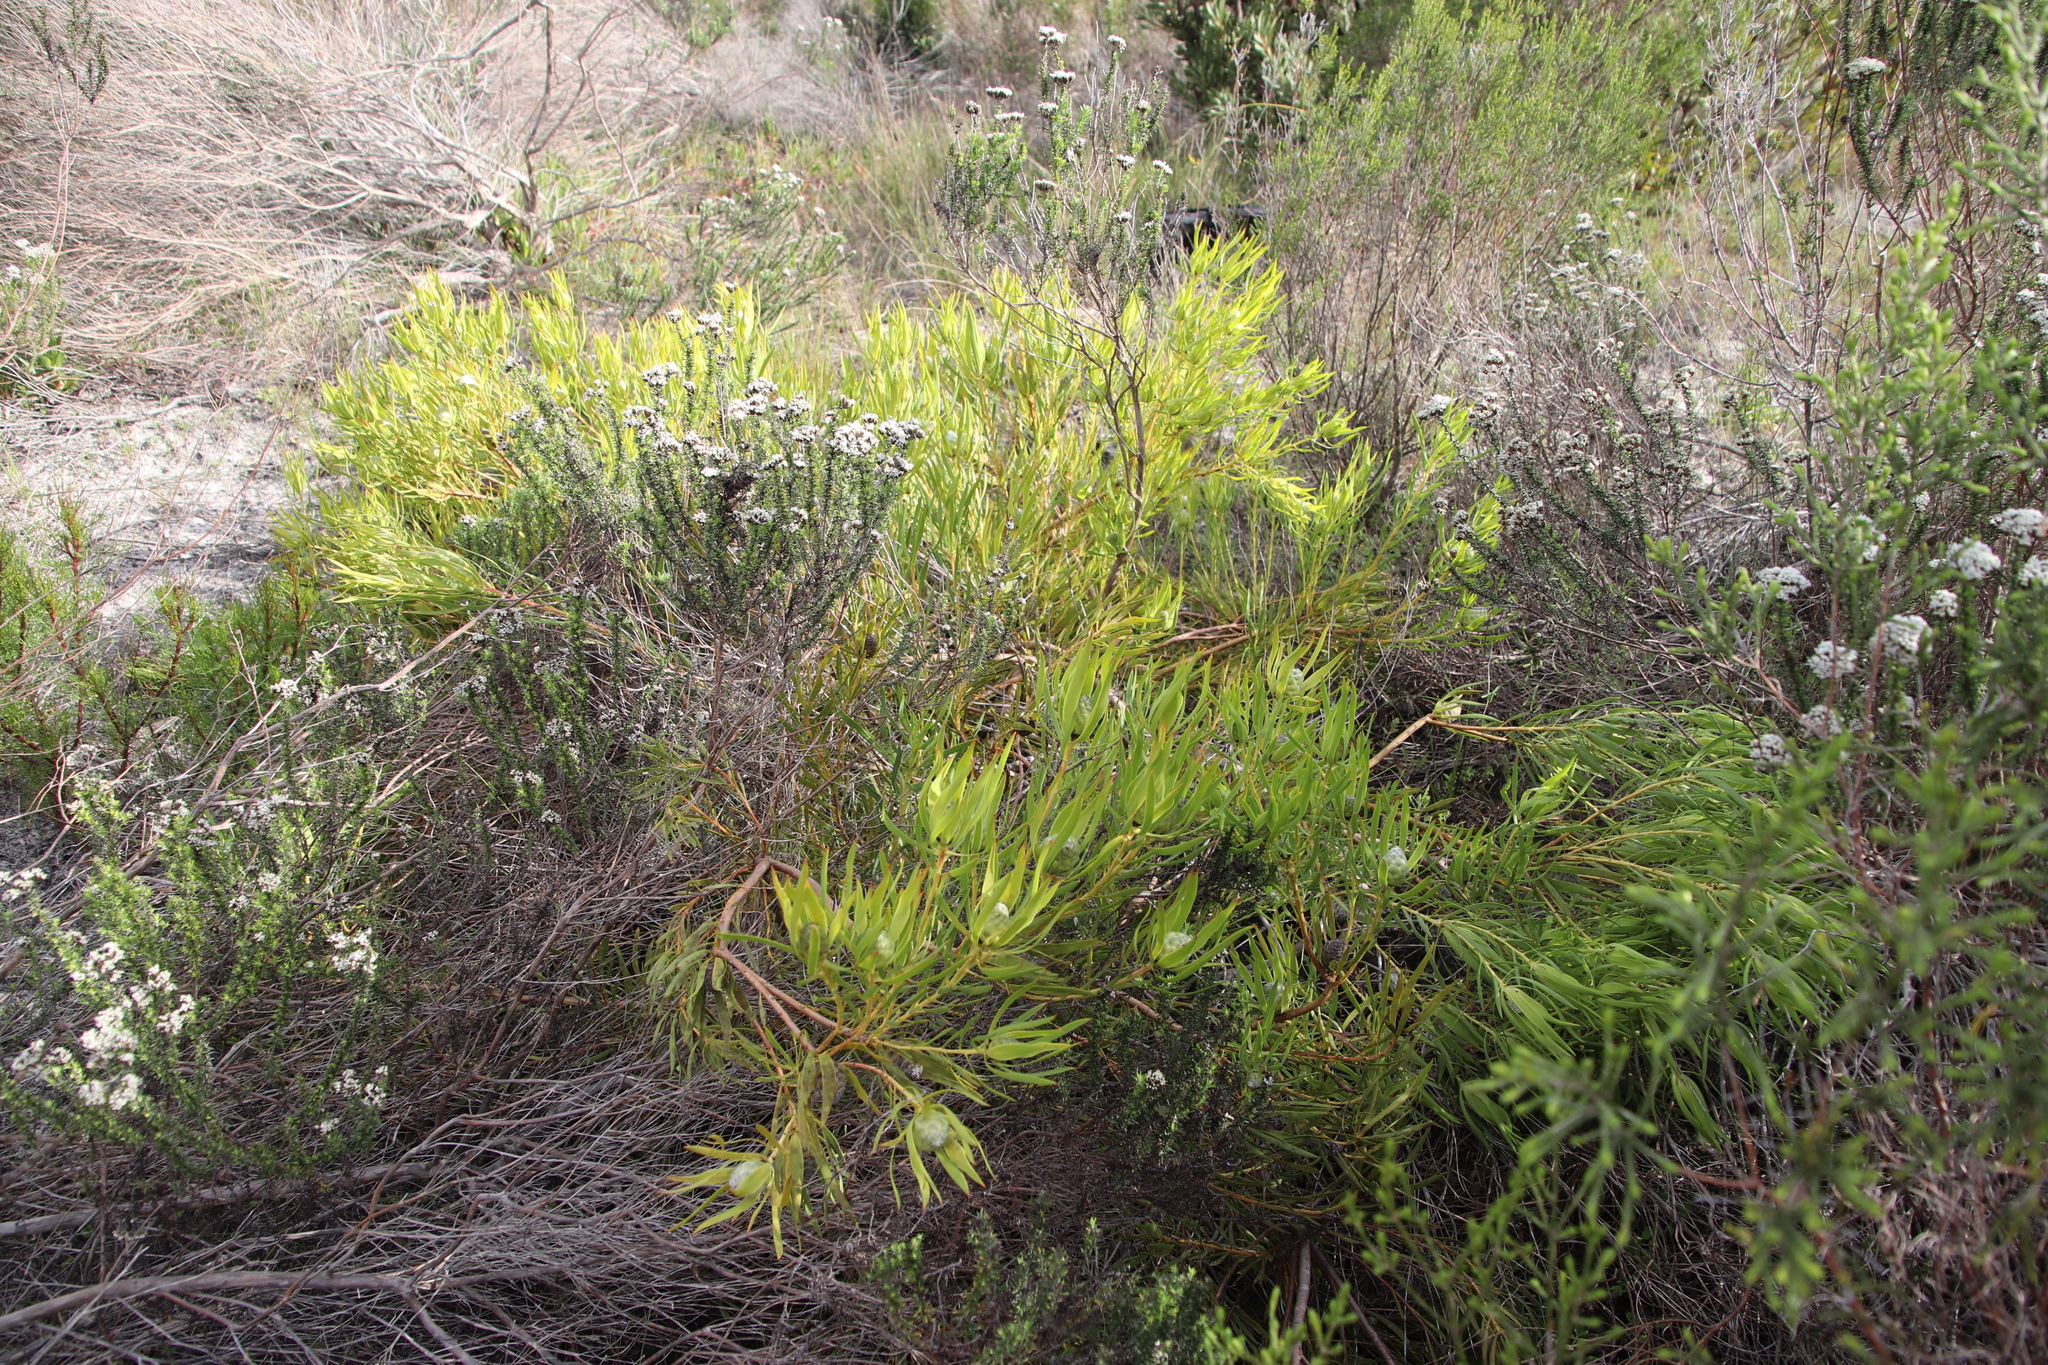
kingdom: Plantae
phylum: Tracheophyta
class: Magnoliopsida
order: Proteales
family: Proteaceae
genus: Leucadendron
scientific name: Leucadendron salignum
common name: Common sunshine conebush
